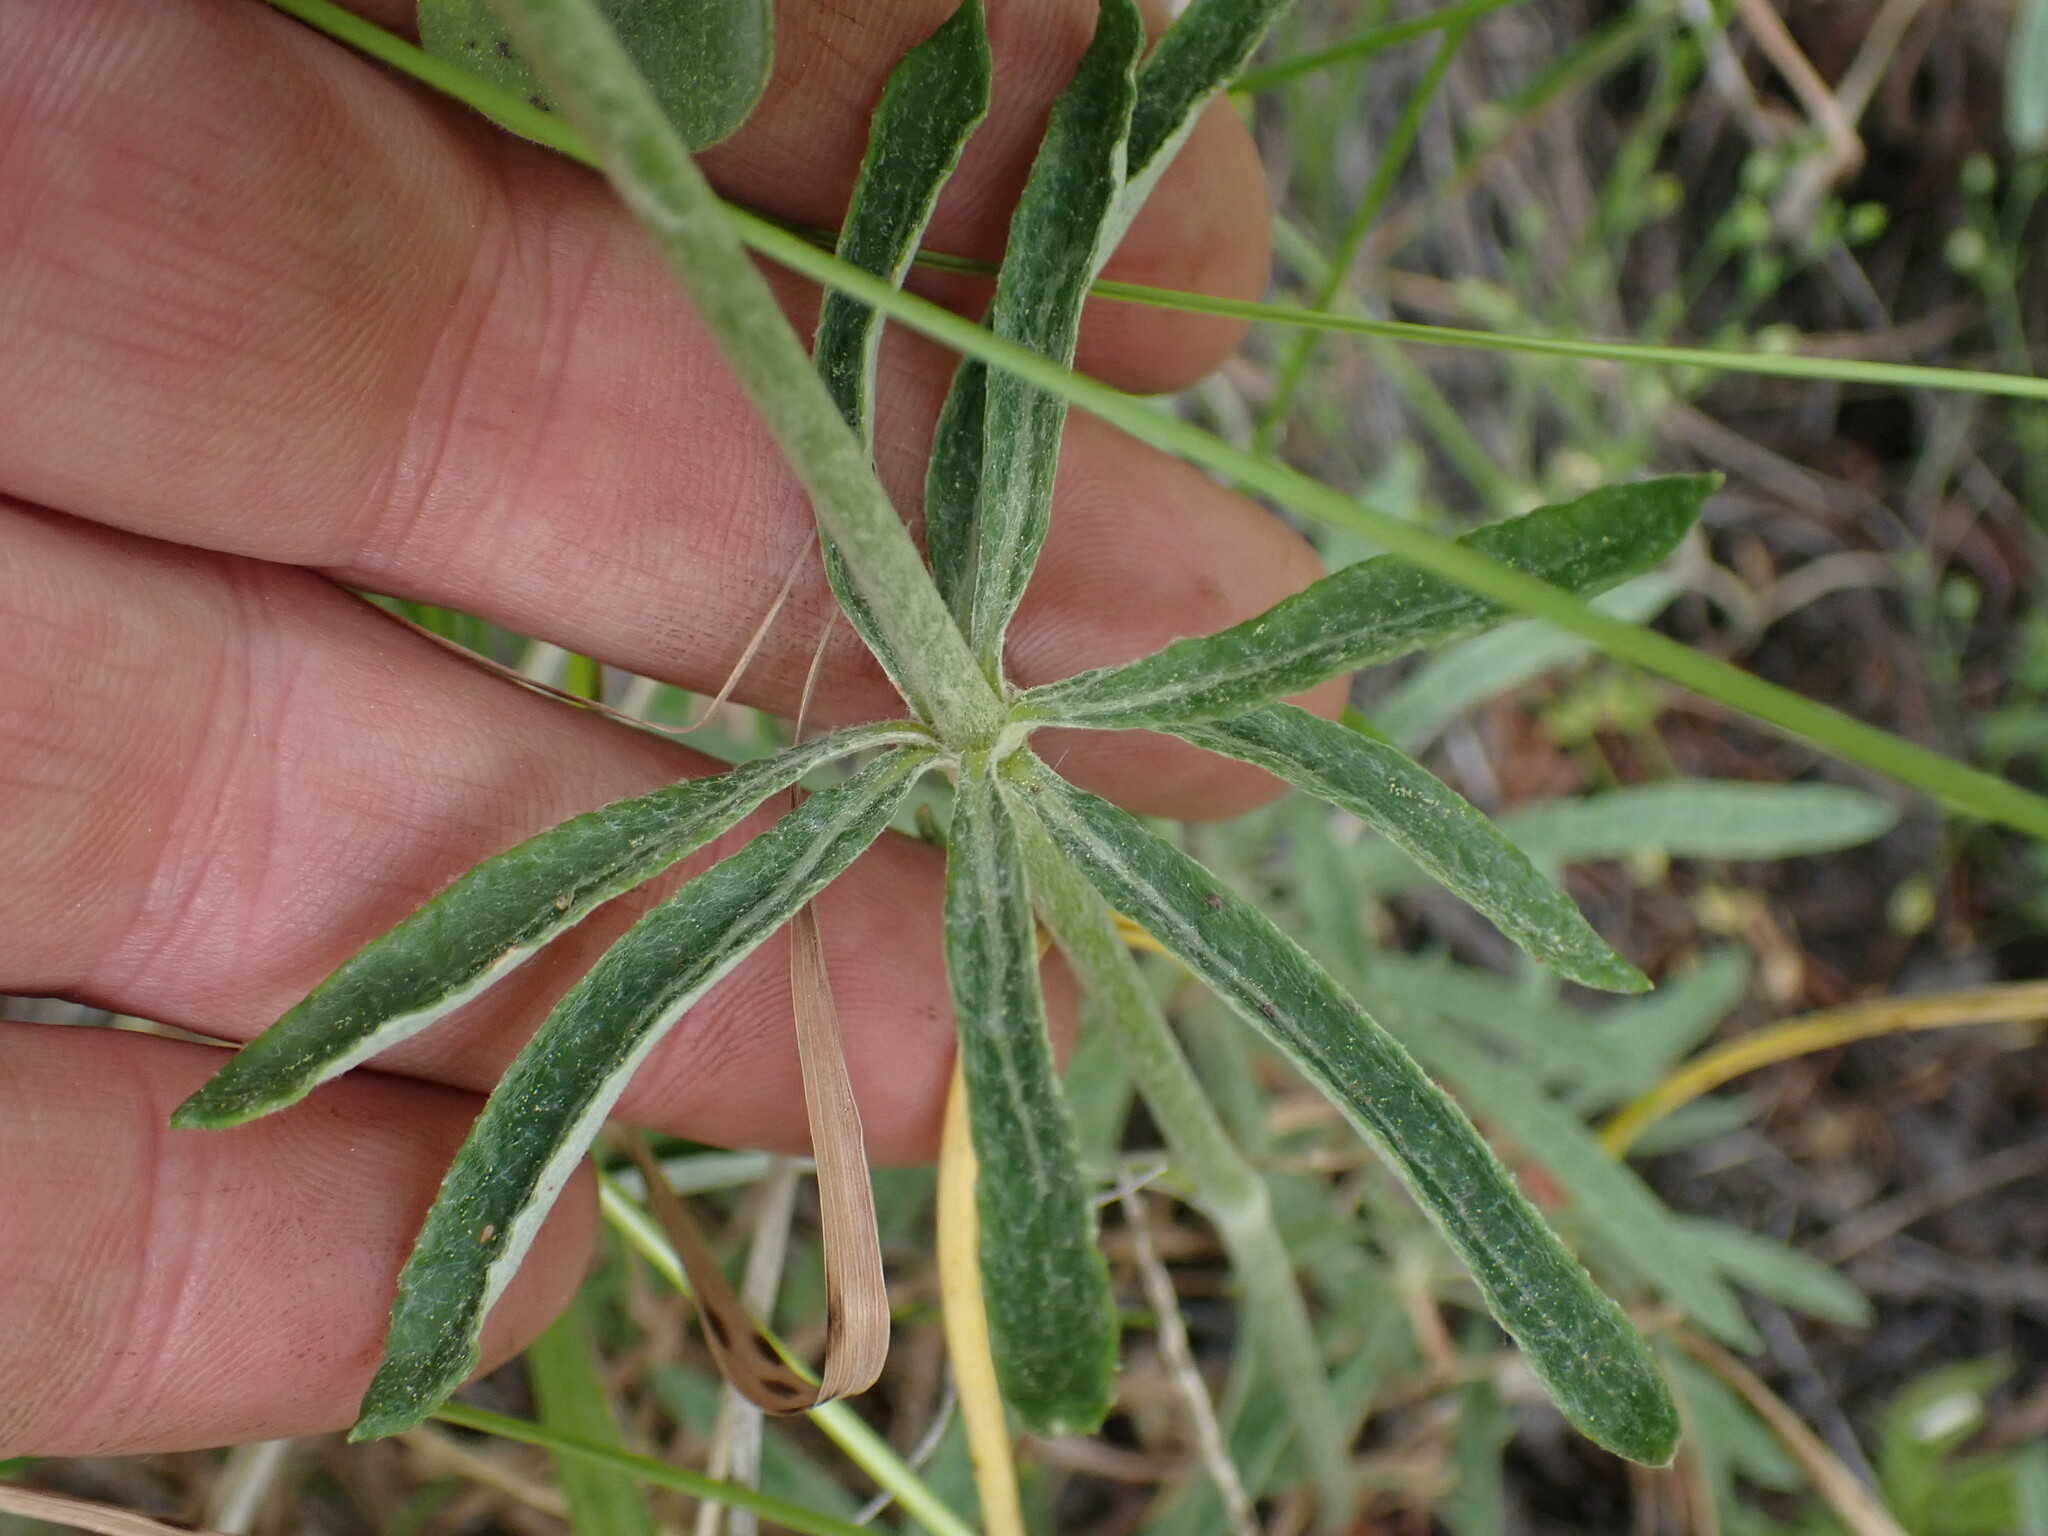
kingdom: Plantae
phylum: Tracheophyta
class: Magnoliopsida
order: Caryophyllales
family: Polygonaceae
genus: Eriogonum
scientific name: Eriogonum heracleoides
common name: Wyeth's buckwheat
